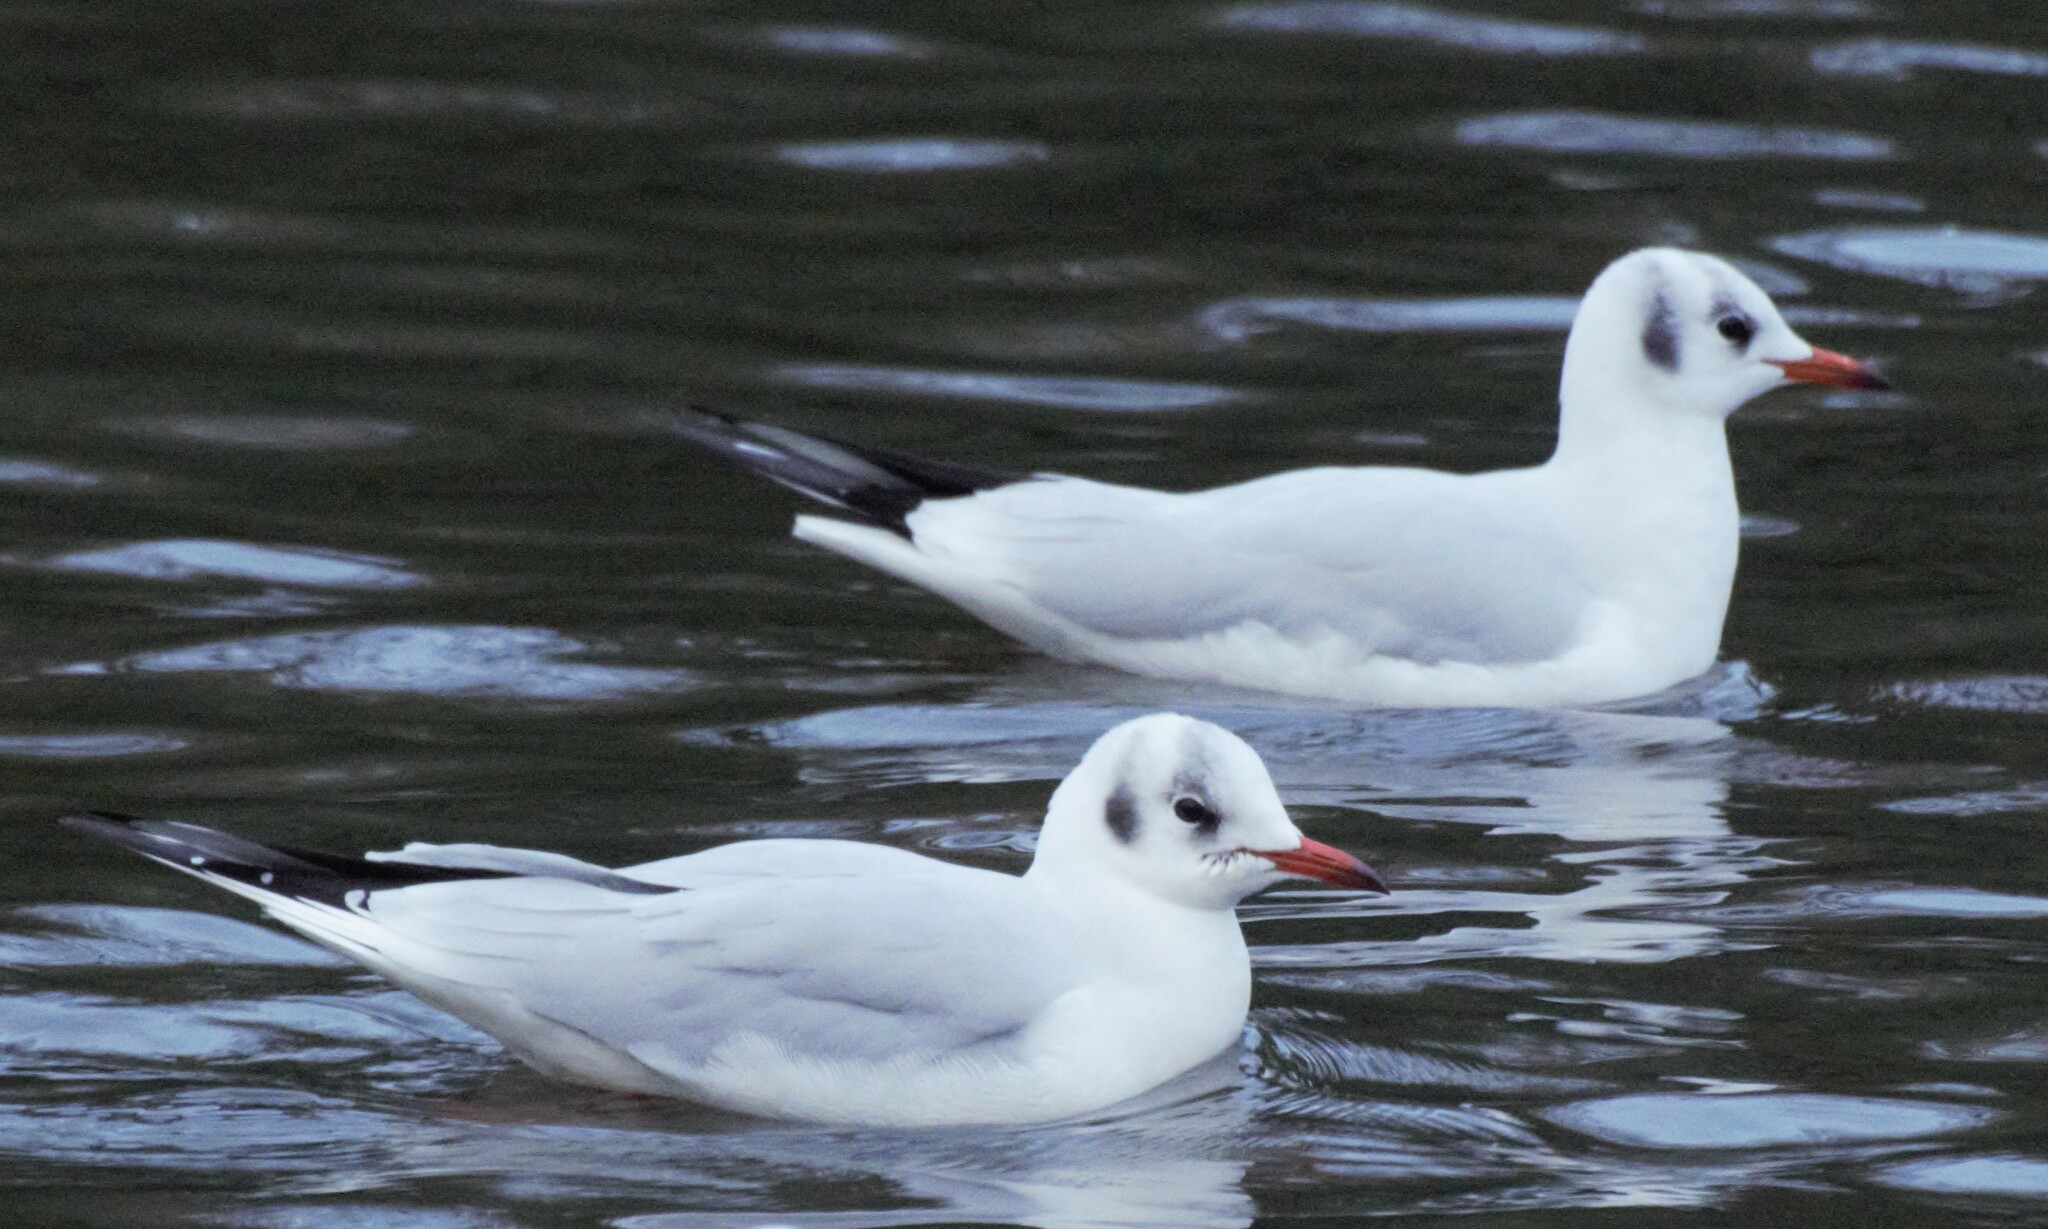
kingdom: Animalia
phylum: Chordata
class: Aves
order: Charadriiformes
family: Laridae
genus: Chroicocephalus
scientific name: Chroicocephalus ridibundus
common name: Black-headed gull
